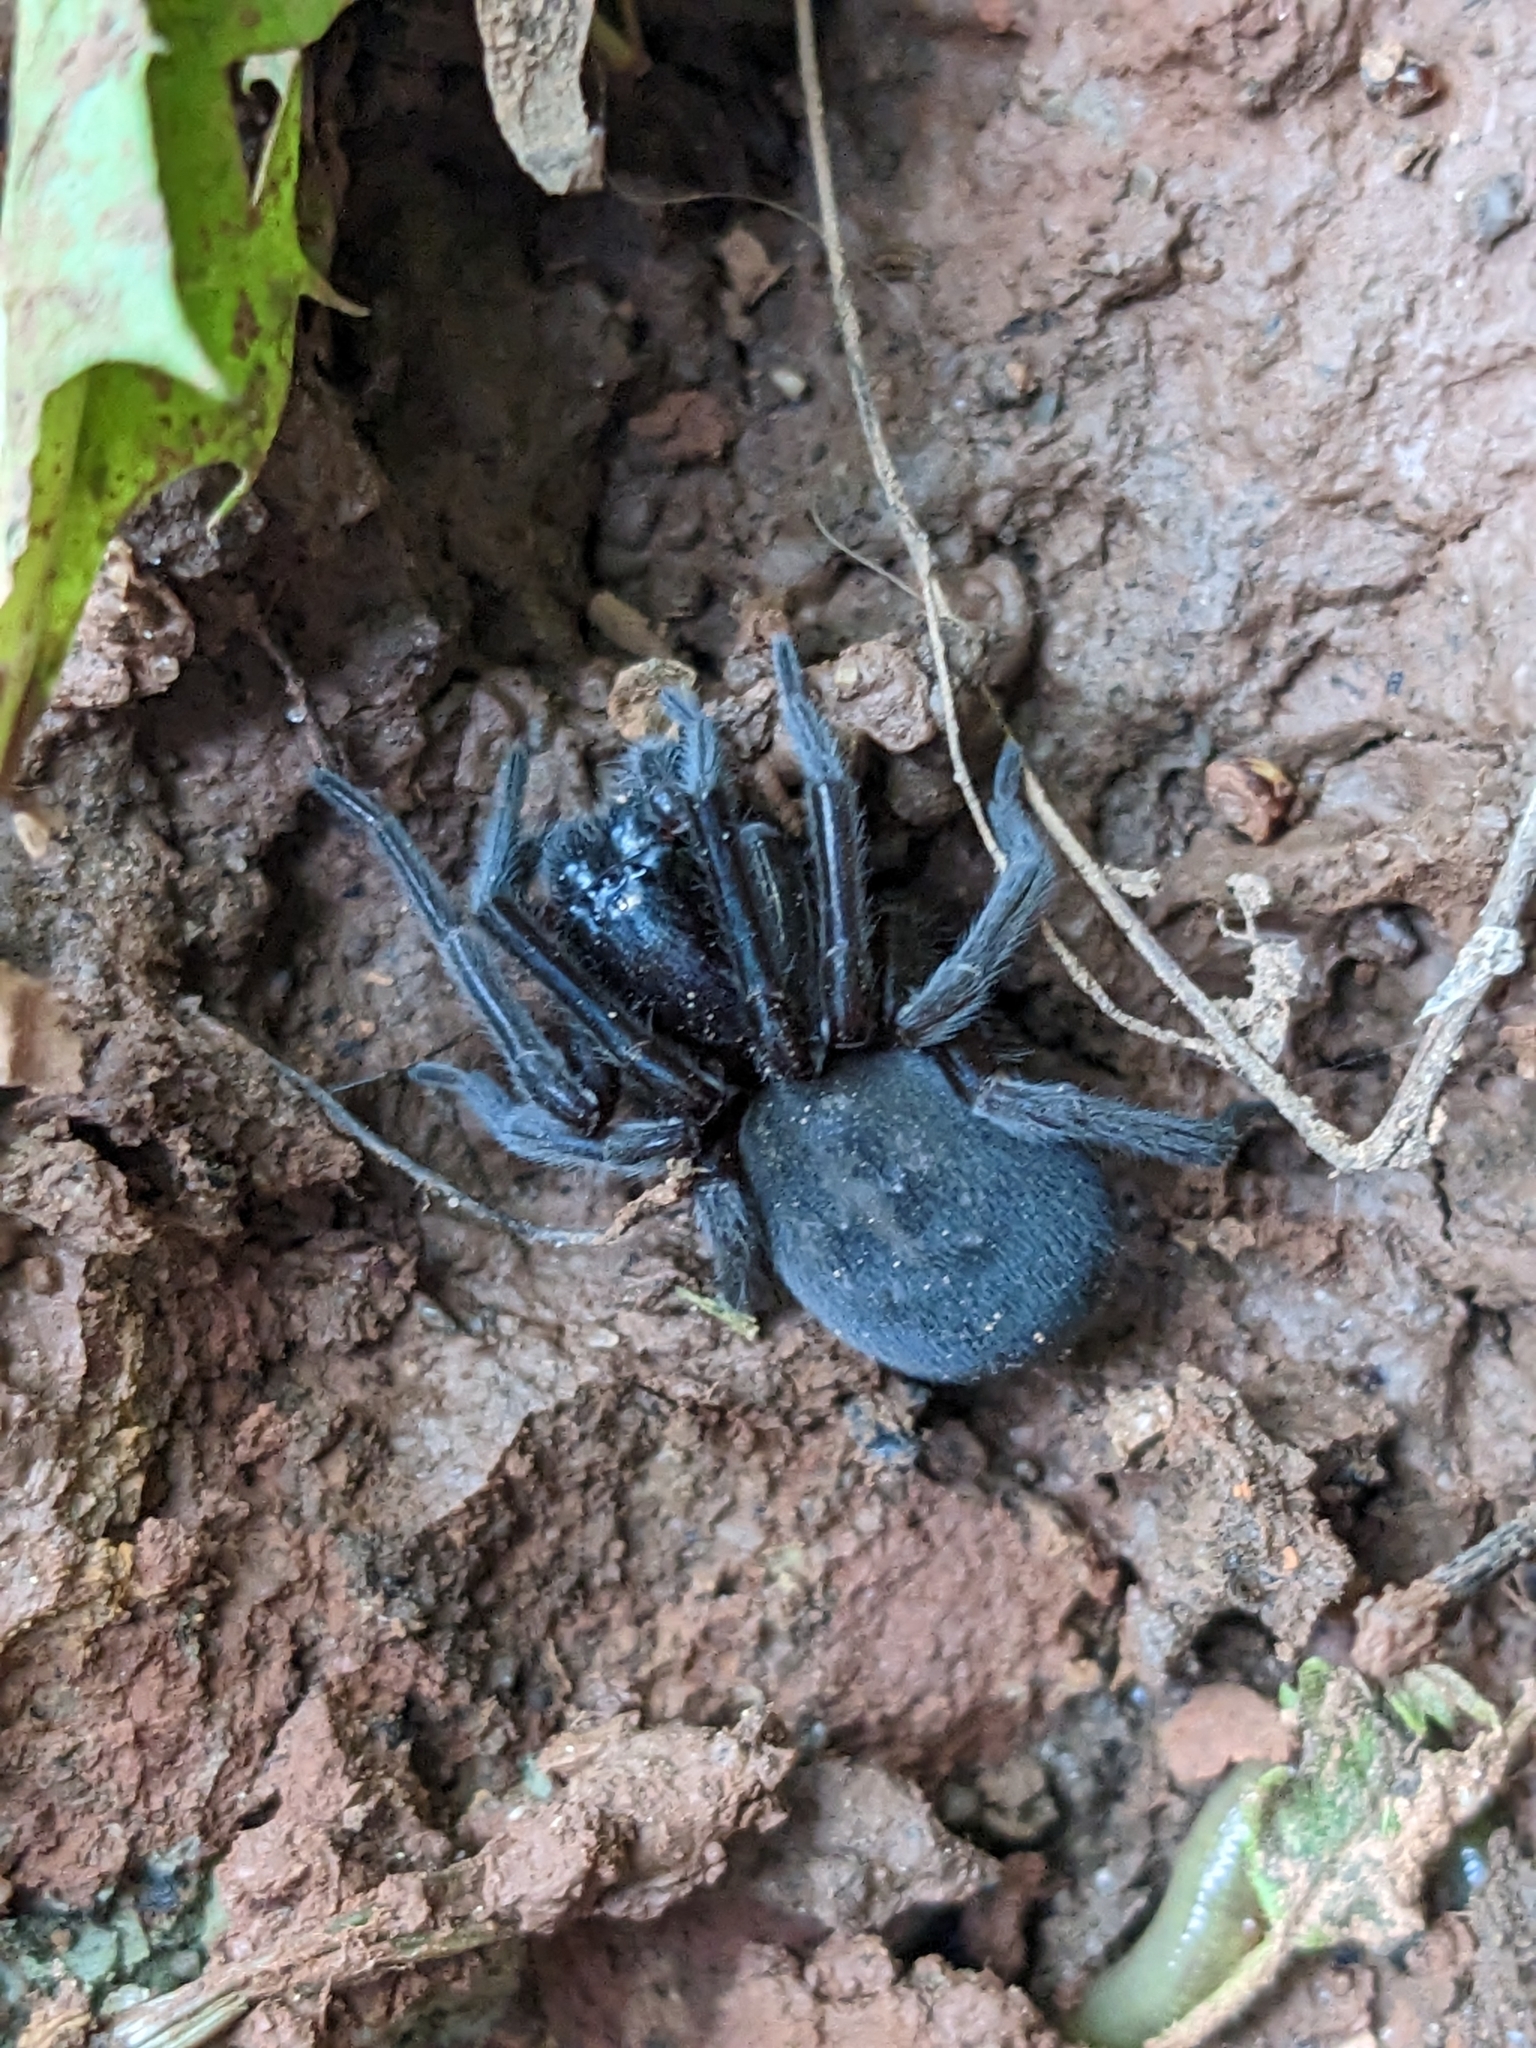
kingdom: Animalia
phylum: Arthropoda
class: Arachnida
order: Araneae
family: Amaurobiidae
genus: Amaurobius
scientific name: Amaurobius ferox
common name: Black laceweaver
